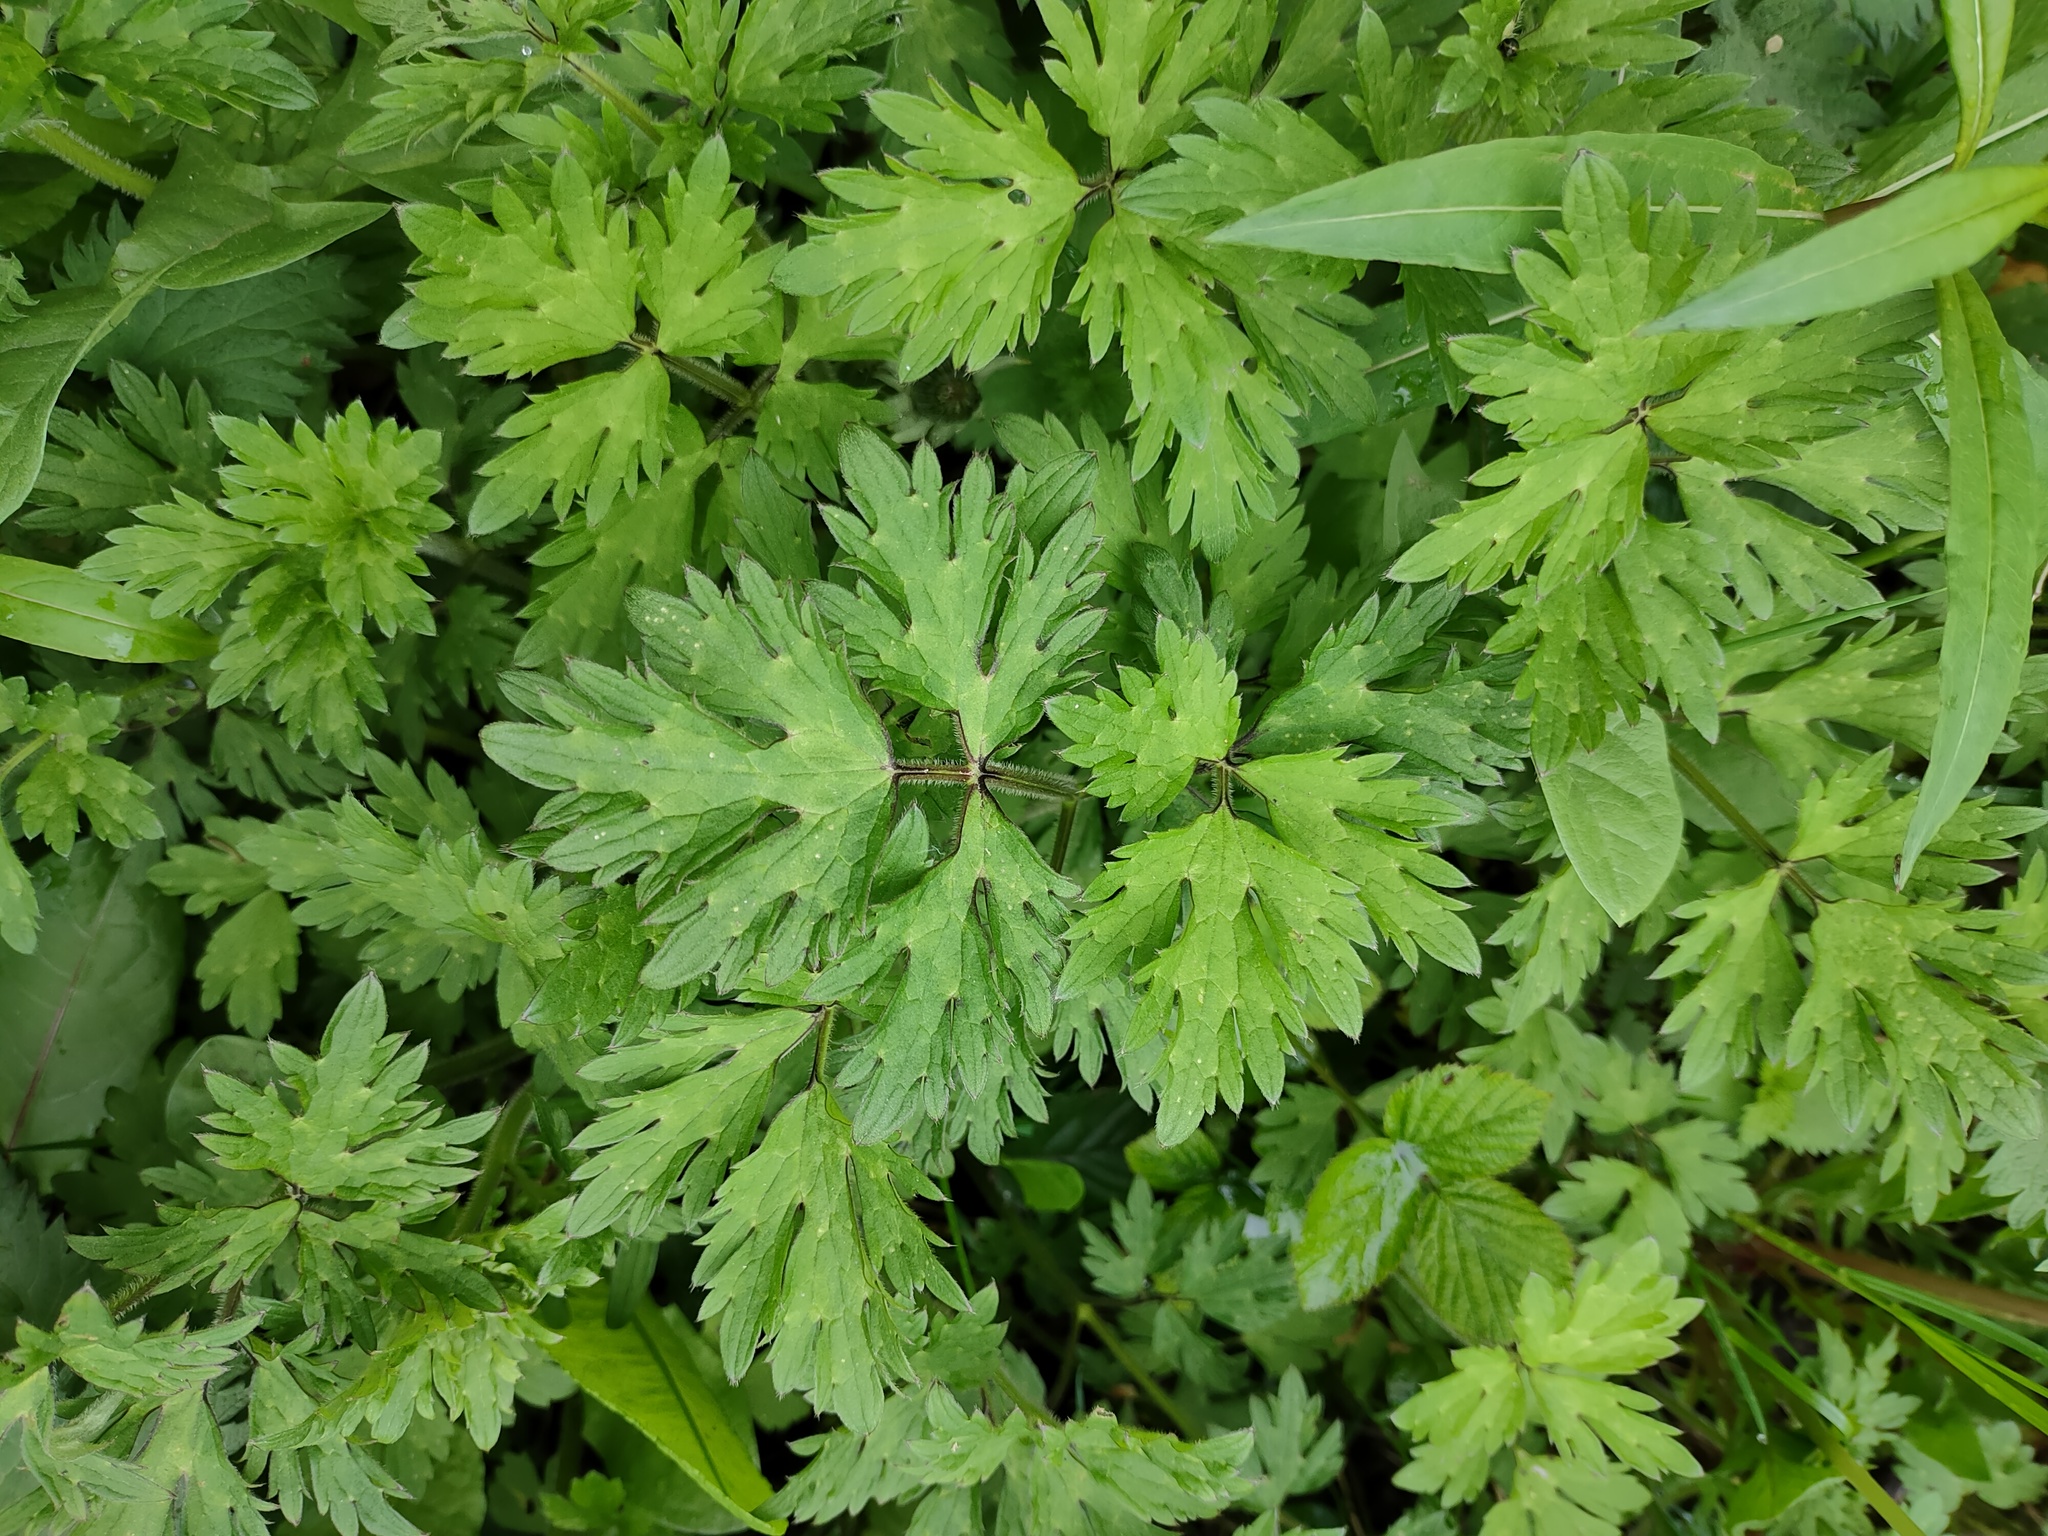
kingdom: Plantae
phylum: Tracheophyta
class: Magnoliopsida
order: Ranunculales
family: Ranunculaceae
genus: Ranunculus
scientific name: Ranunculus repens
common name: Creeping buttercup
